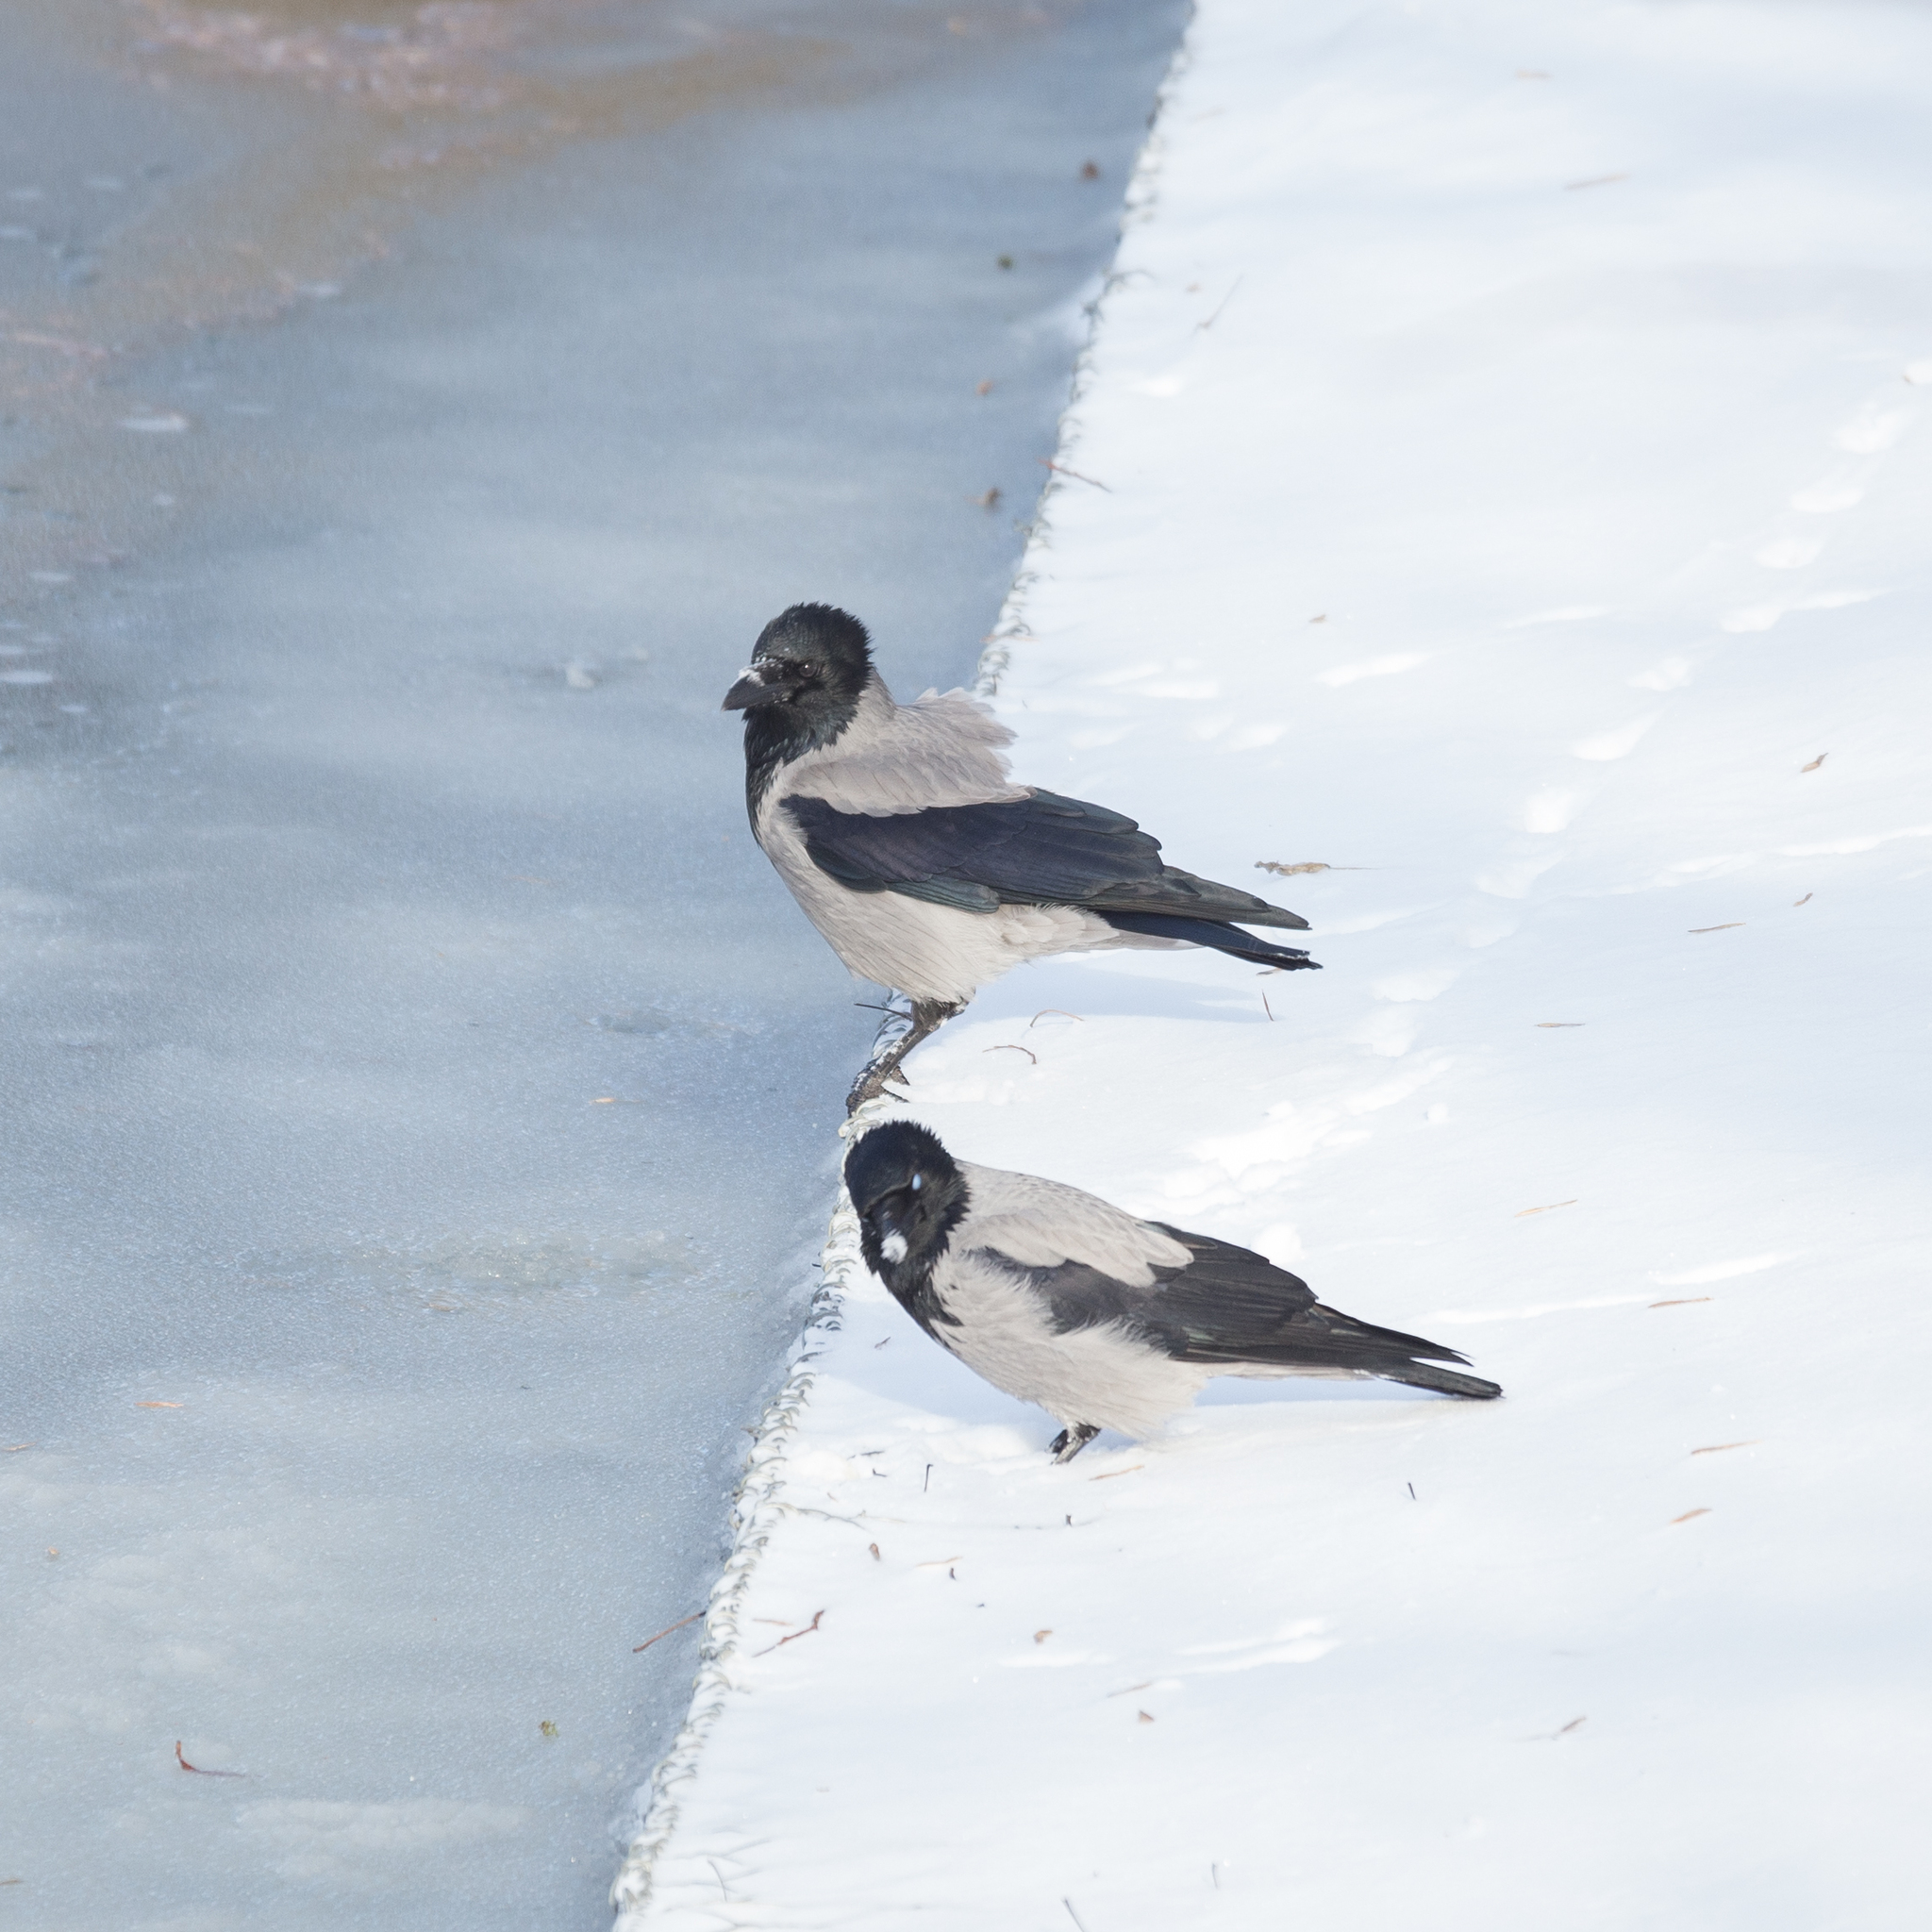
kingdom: Animalia
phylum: Chordata
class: Aves
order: Passeriformes
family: Corvidae
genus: Corvus
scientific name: Corvus cornix
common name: Hooded crow
